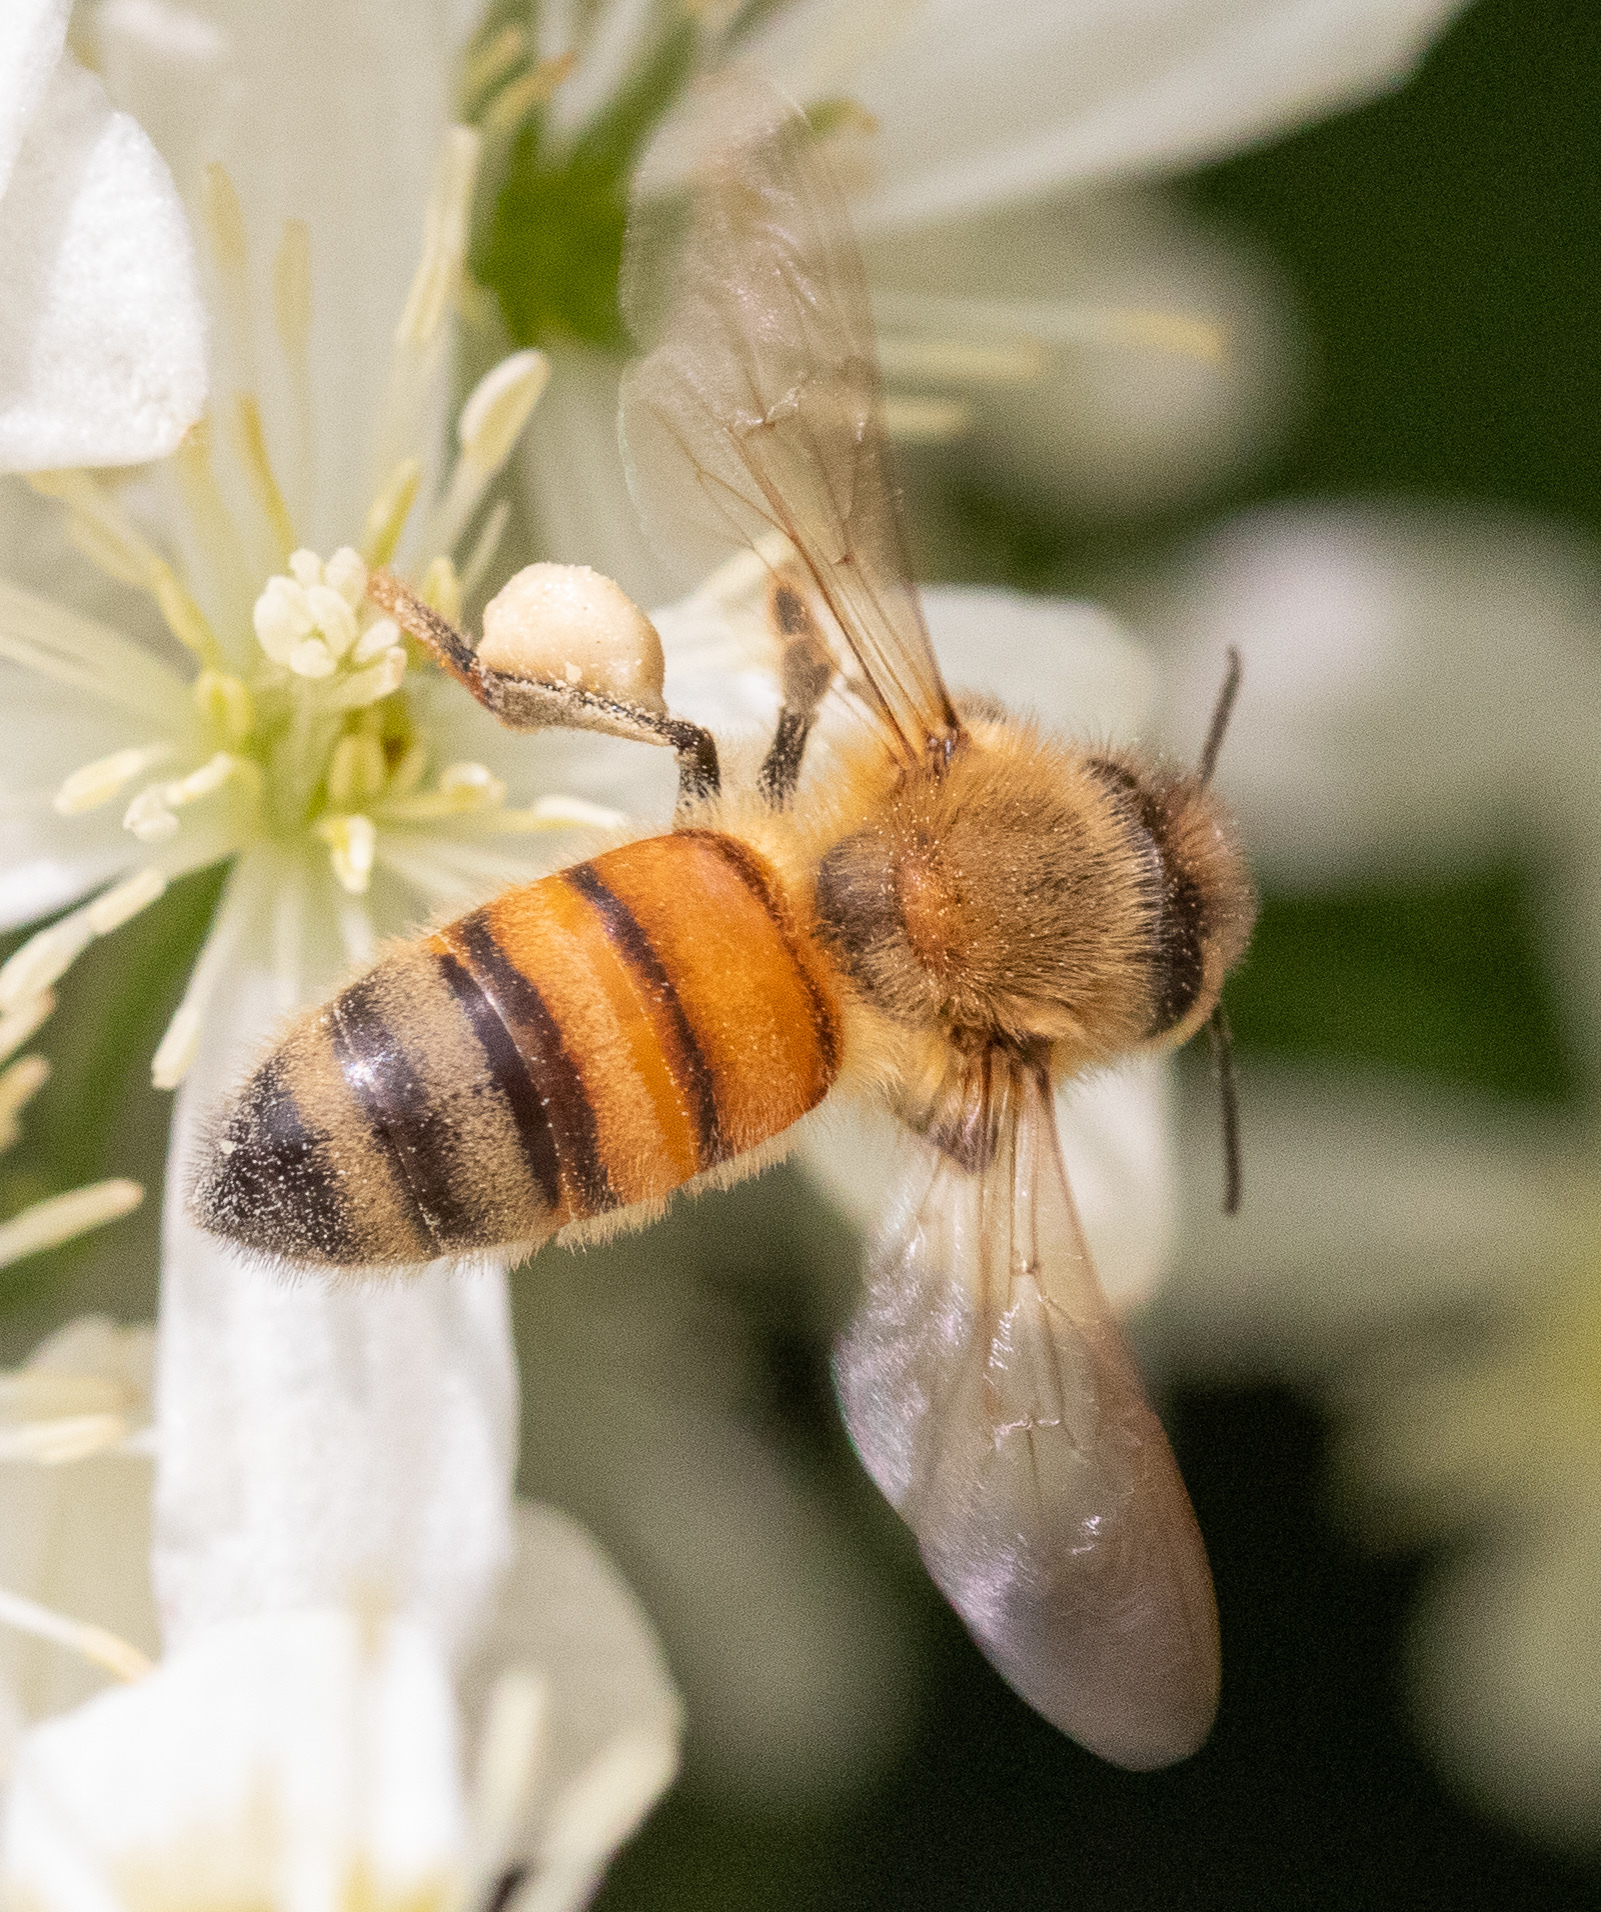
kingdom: Animalia
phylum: Arthropoda
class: Insecta
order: Hymenoptera
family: Apidae
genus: Apis
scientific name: Apis mellifera
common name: Honey bee
